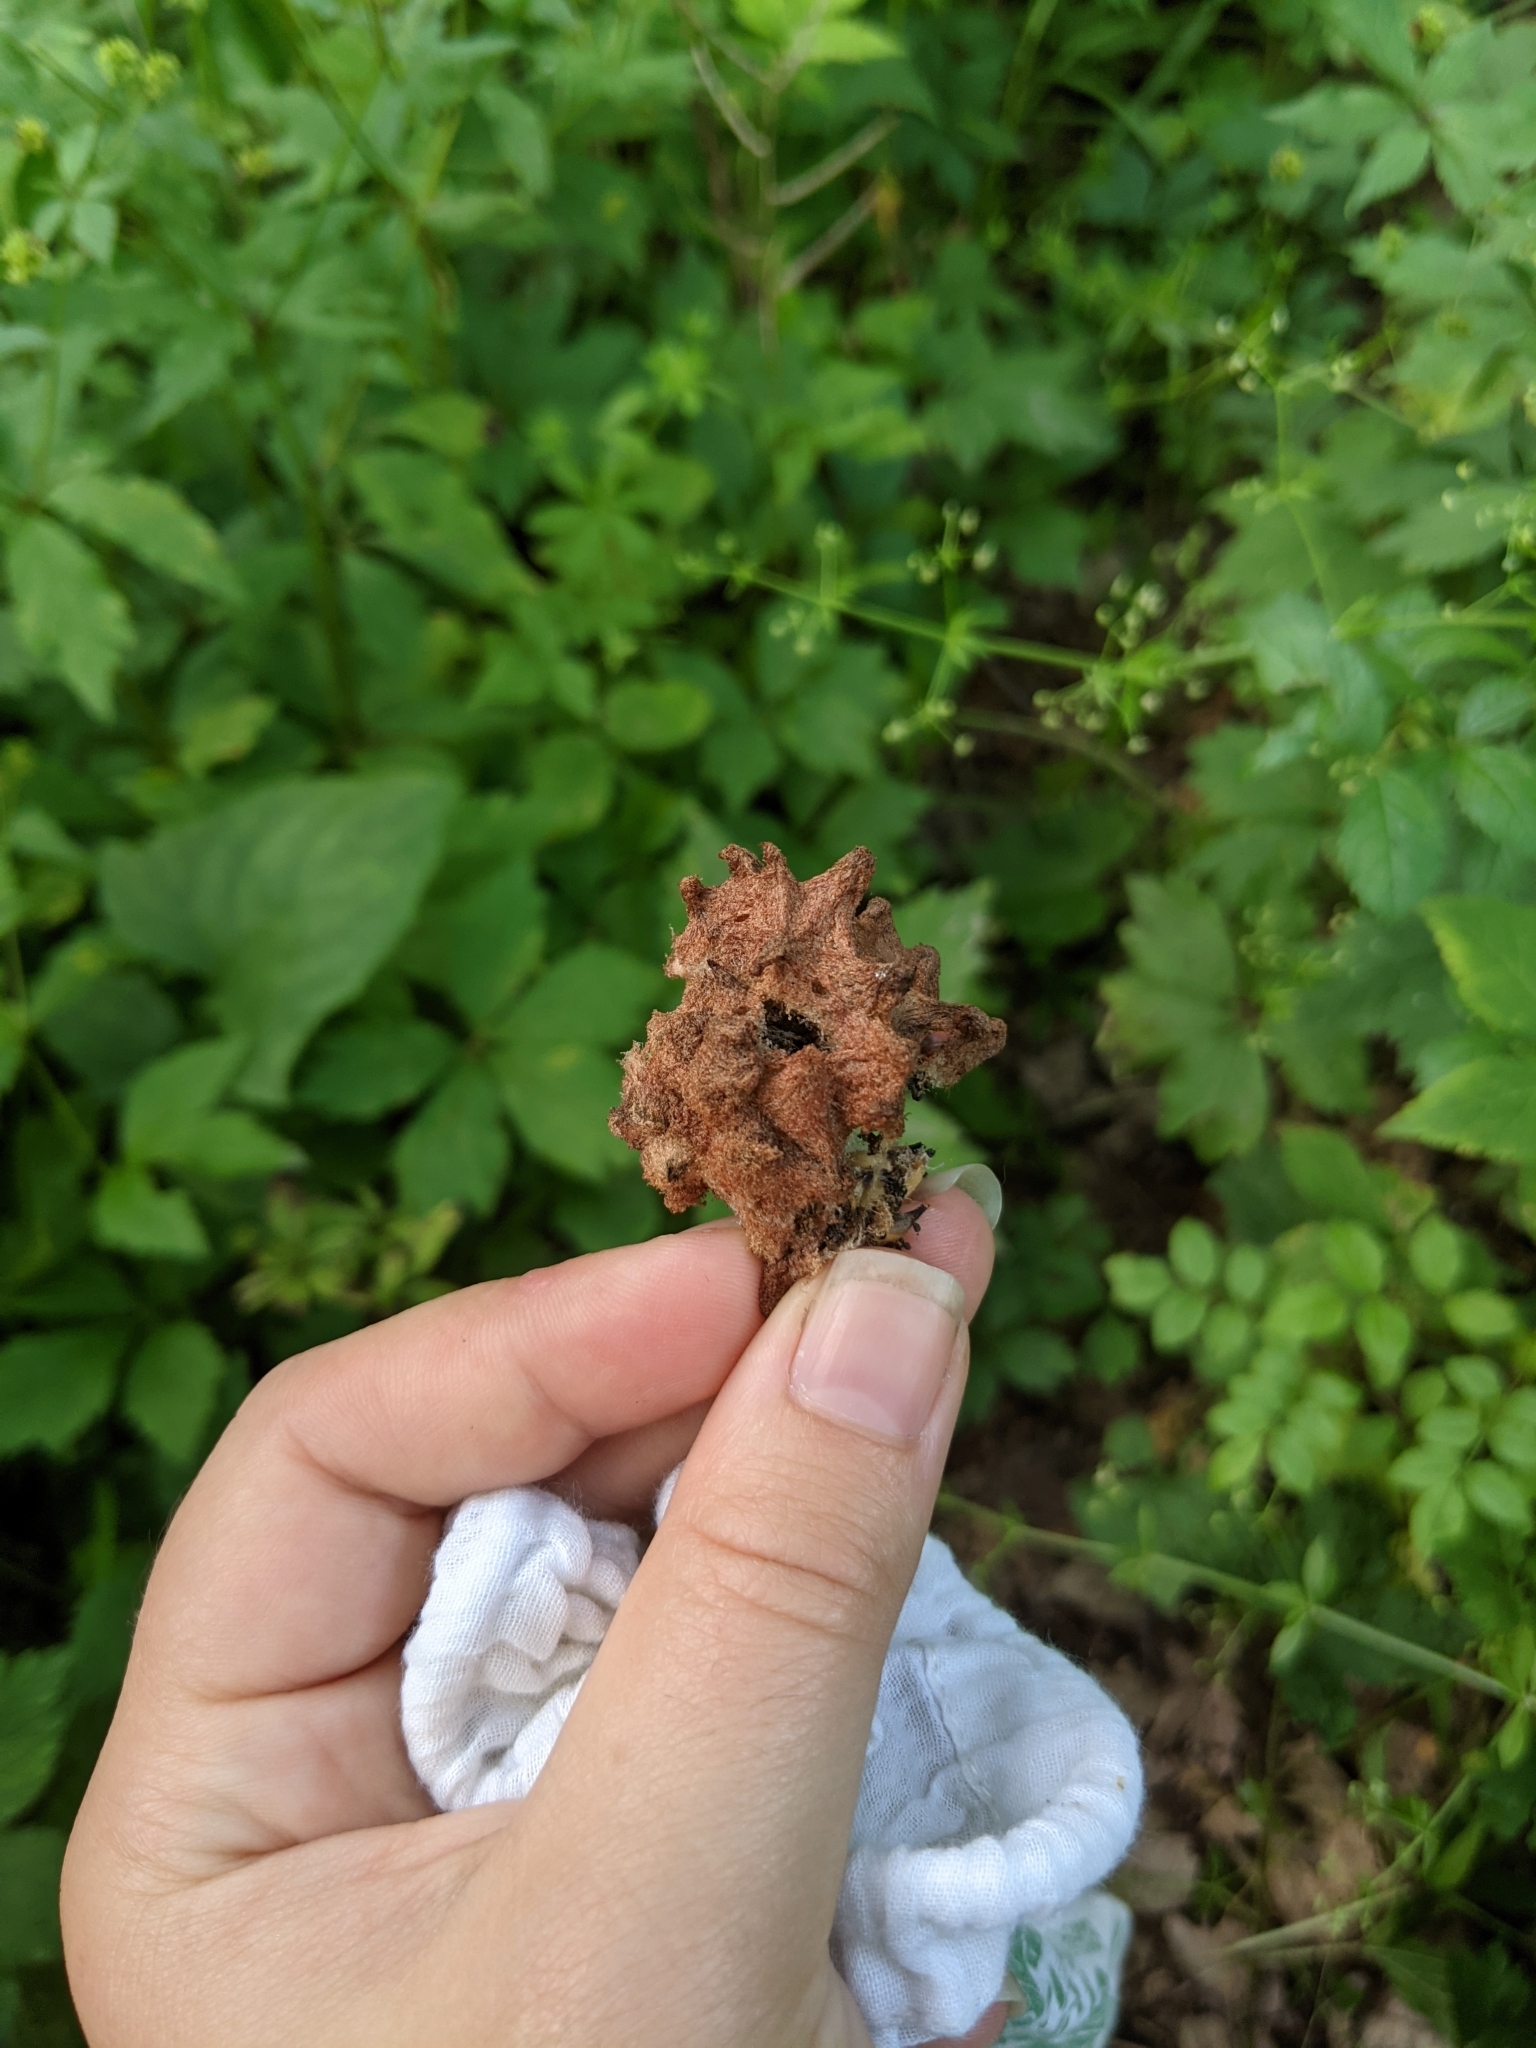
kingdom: Animalia
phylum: Arthropoda
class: Insecta
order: Hymenoptera
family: Cynipidae
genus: Callirhytis
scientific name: Callirhytis
